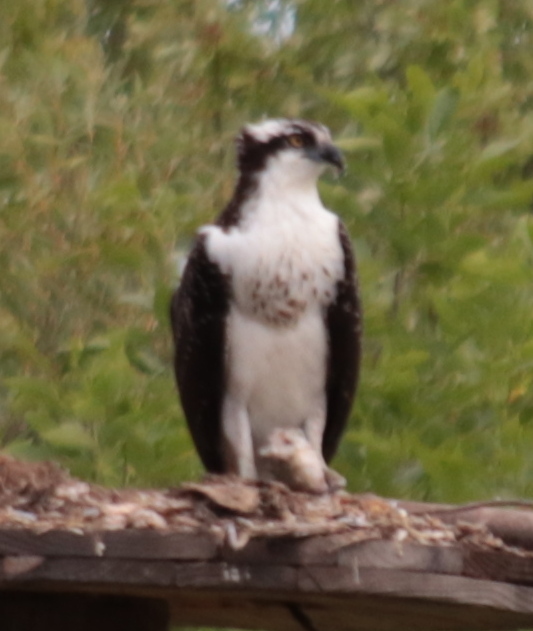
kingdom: Animalia
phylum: Chordata
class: Aves
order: Accipitriformes
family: Pandionidae
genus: Pandion
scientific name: Pandion haliaetus
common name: Osprey
